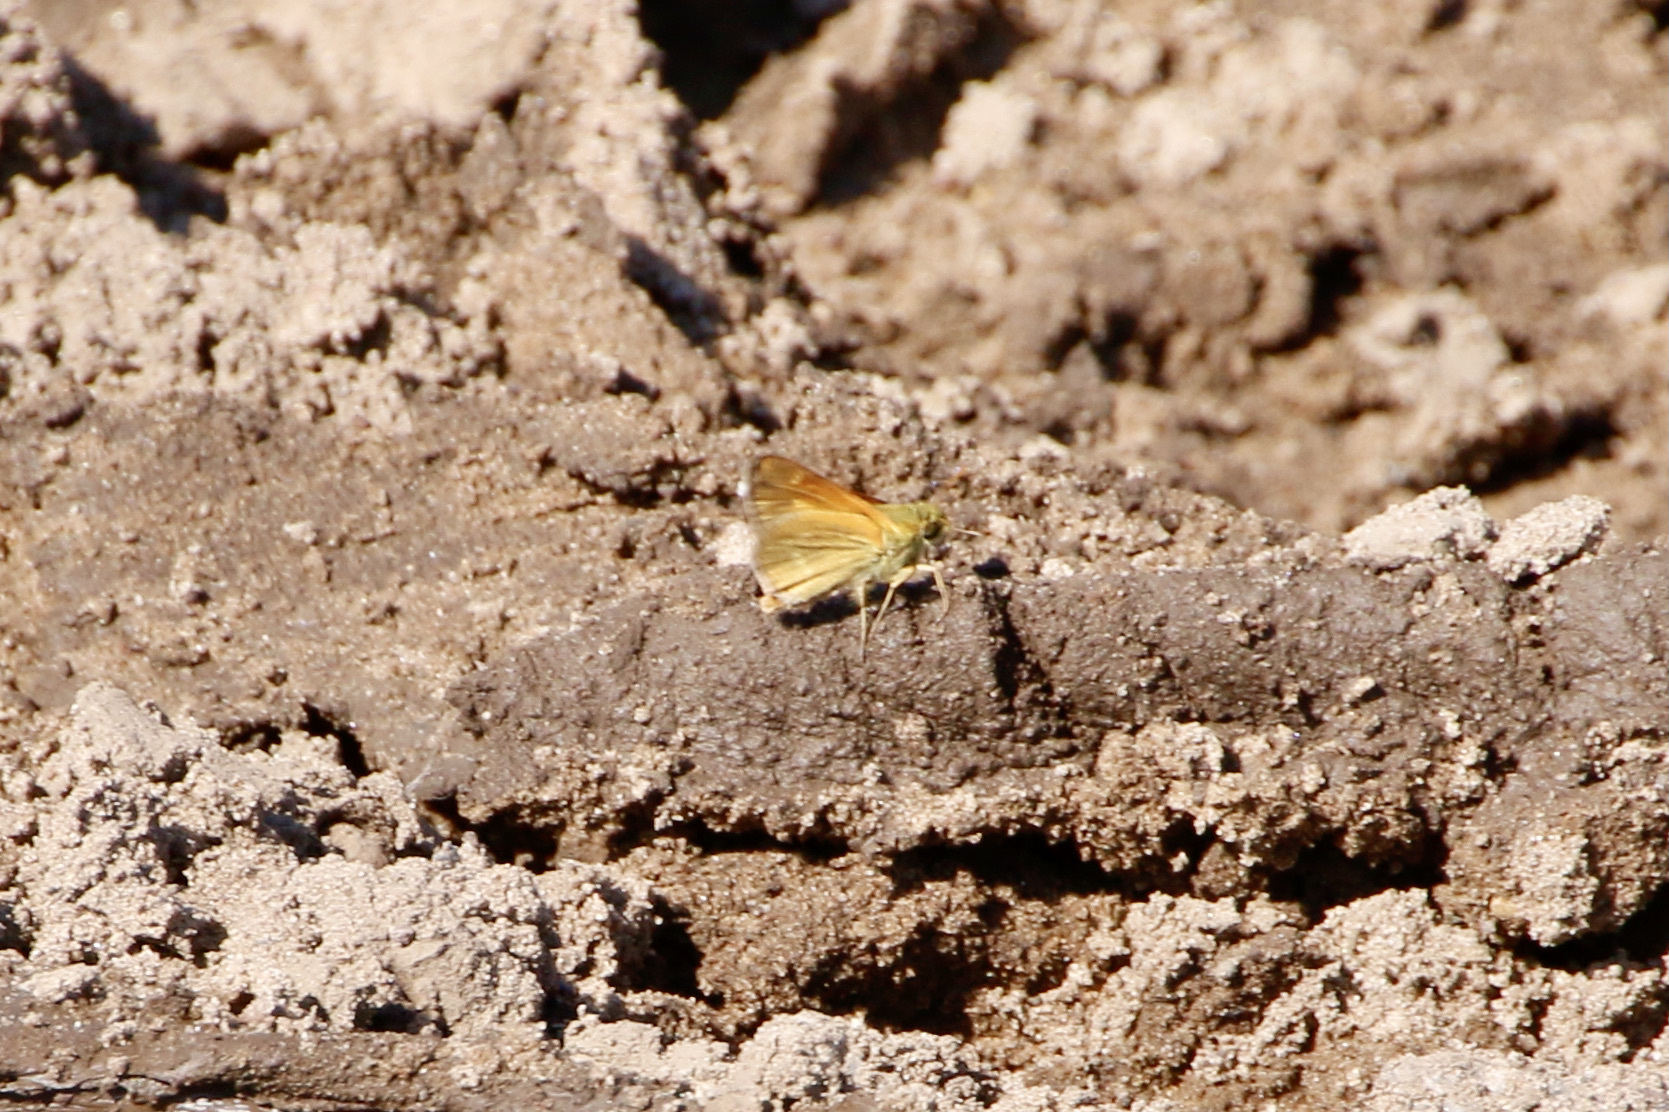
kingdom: Animalia
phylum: Arthropoda
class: Insecta
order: Lepidoptera
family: Hesperiidae
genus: Polites
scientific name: Polites themistocles
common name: Tawny-edged skipper
